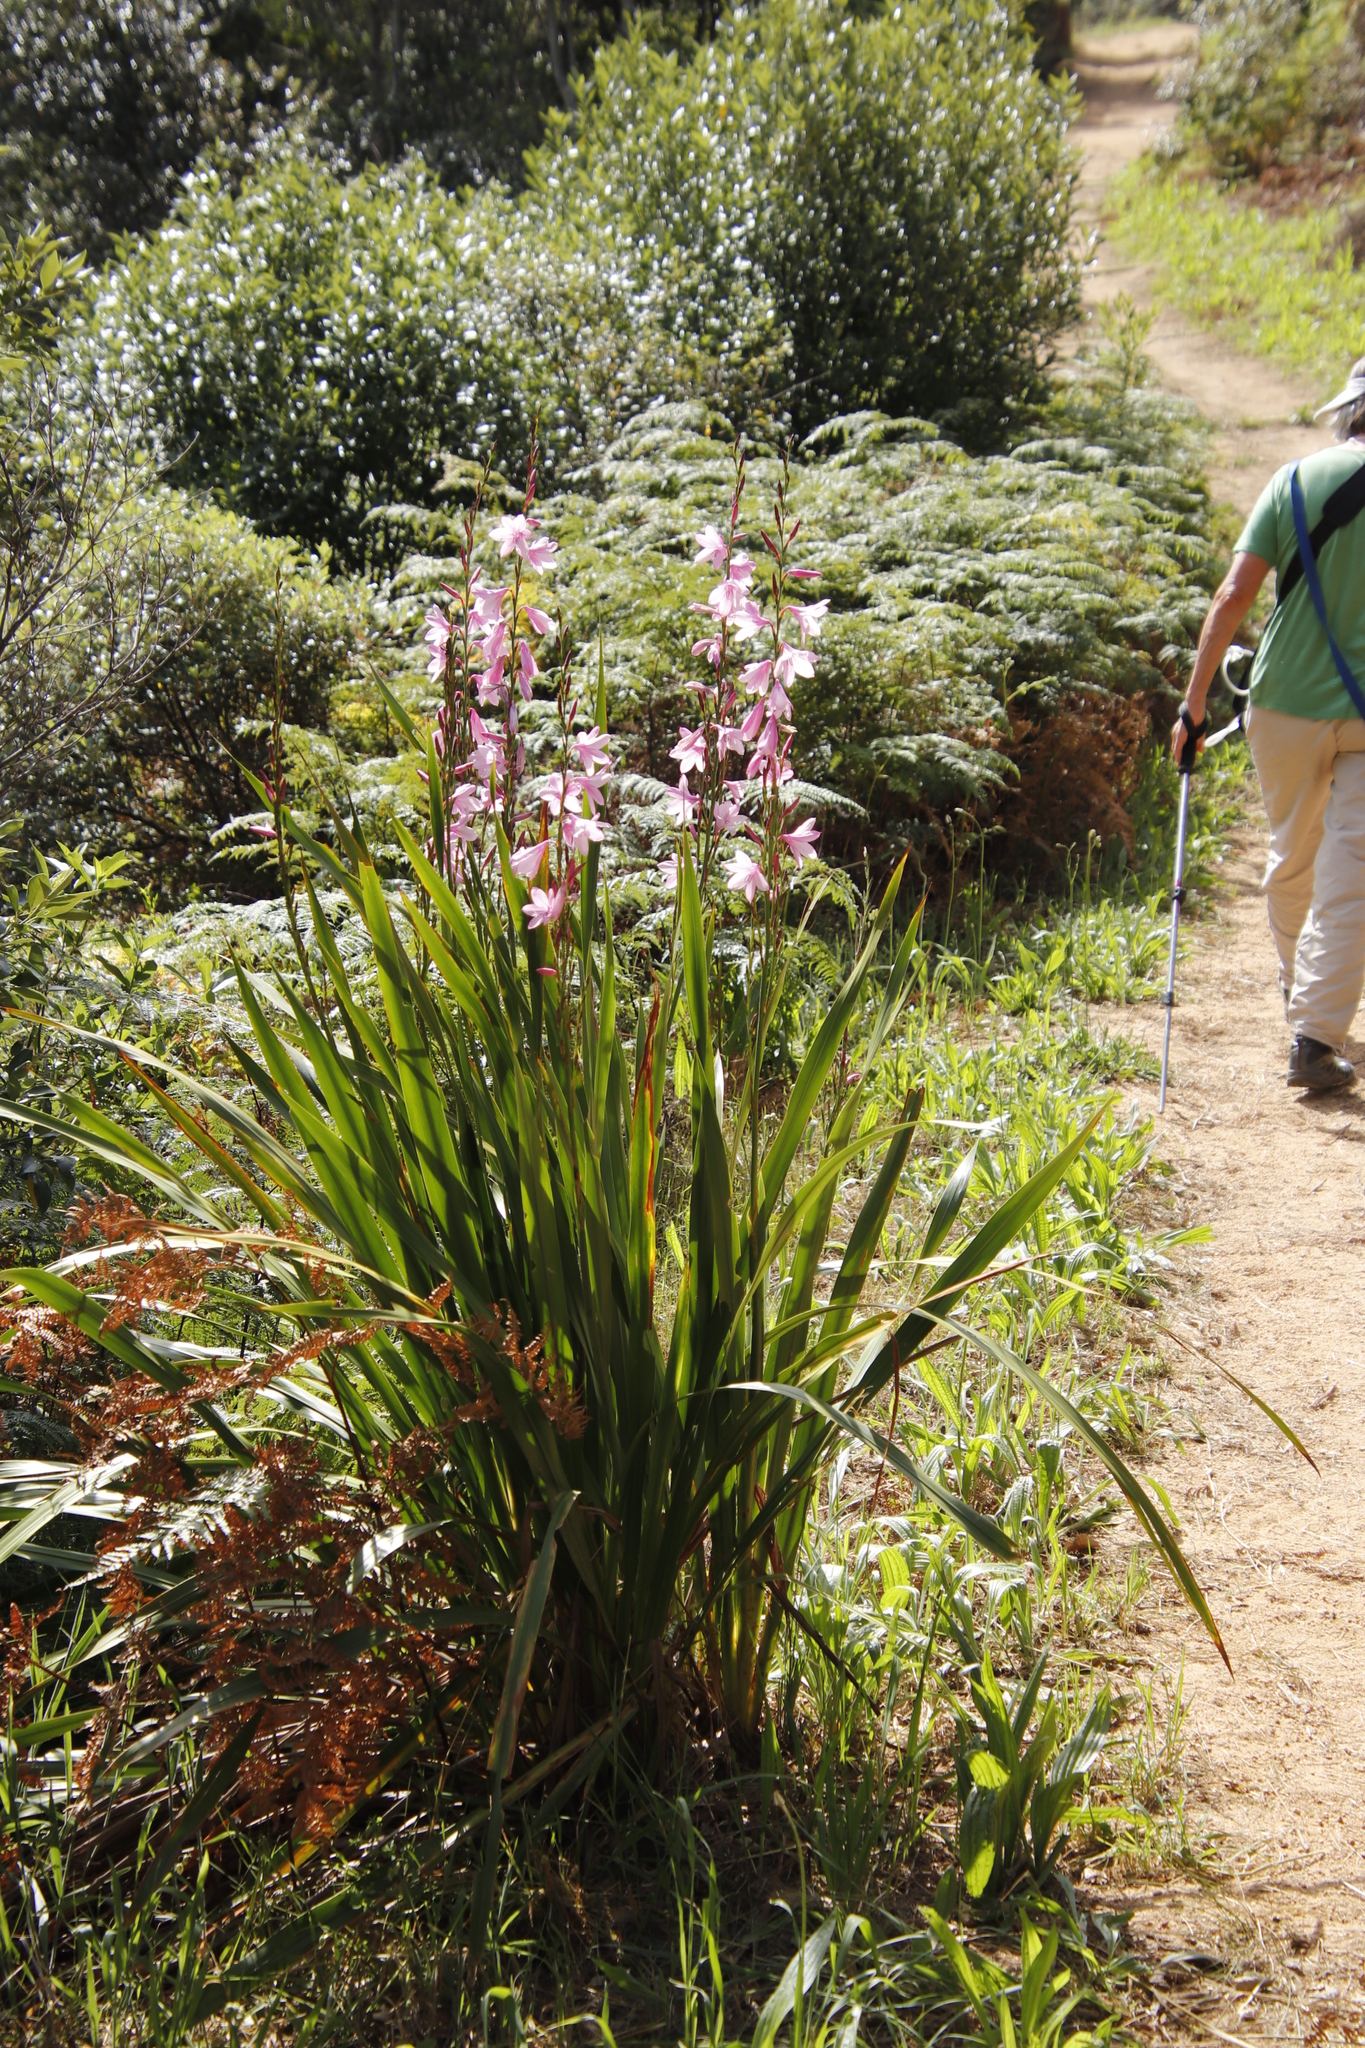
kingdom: Plantae
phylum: Tracheophyta
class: Liliopsida
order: Asparagales
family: Iridaceae
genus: Watsonia
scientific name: Watsonia borbonica
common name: Bugle-lily
